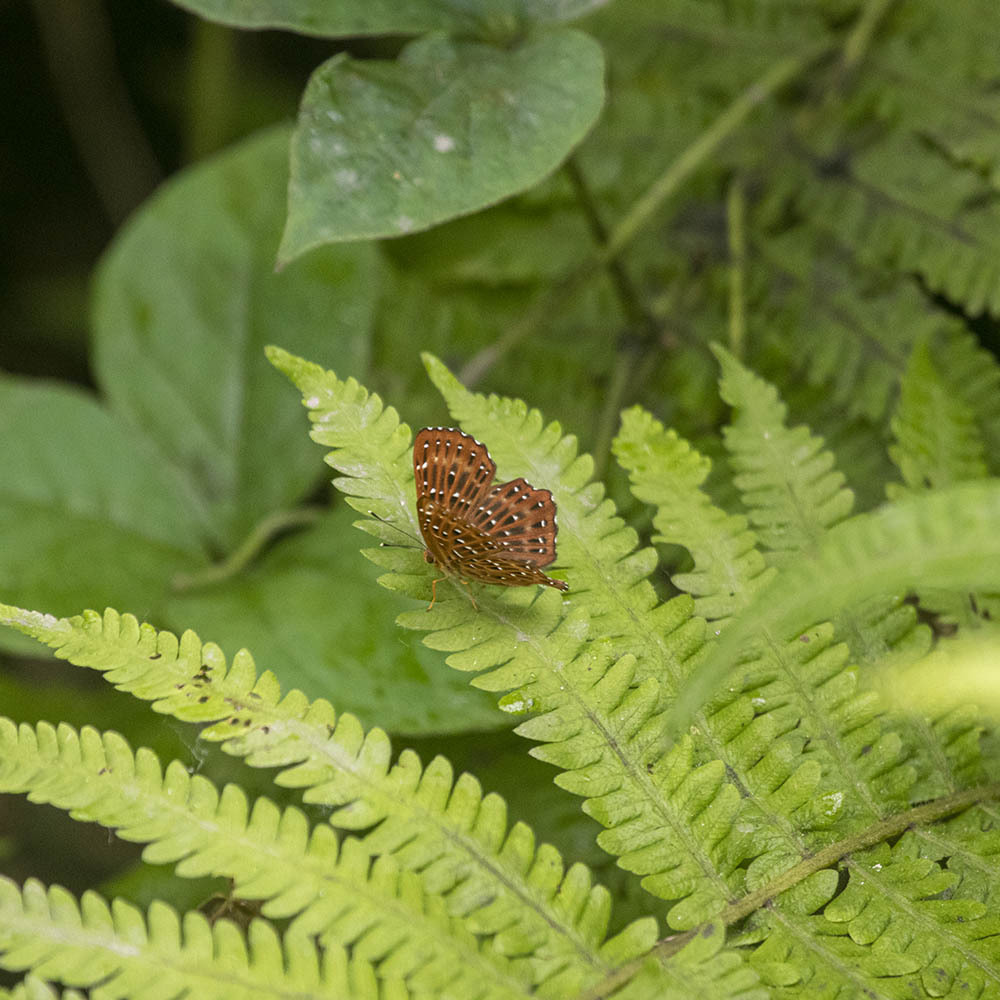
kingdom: Animalia
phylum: Arthropoda
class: Insecta
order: Lepidoptera
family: Riodinidae
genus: Zemeros
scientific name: Zemeros flegyas
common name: Punchinello
